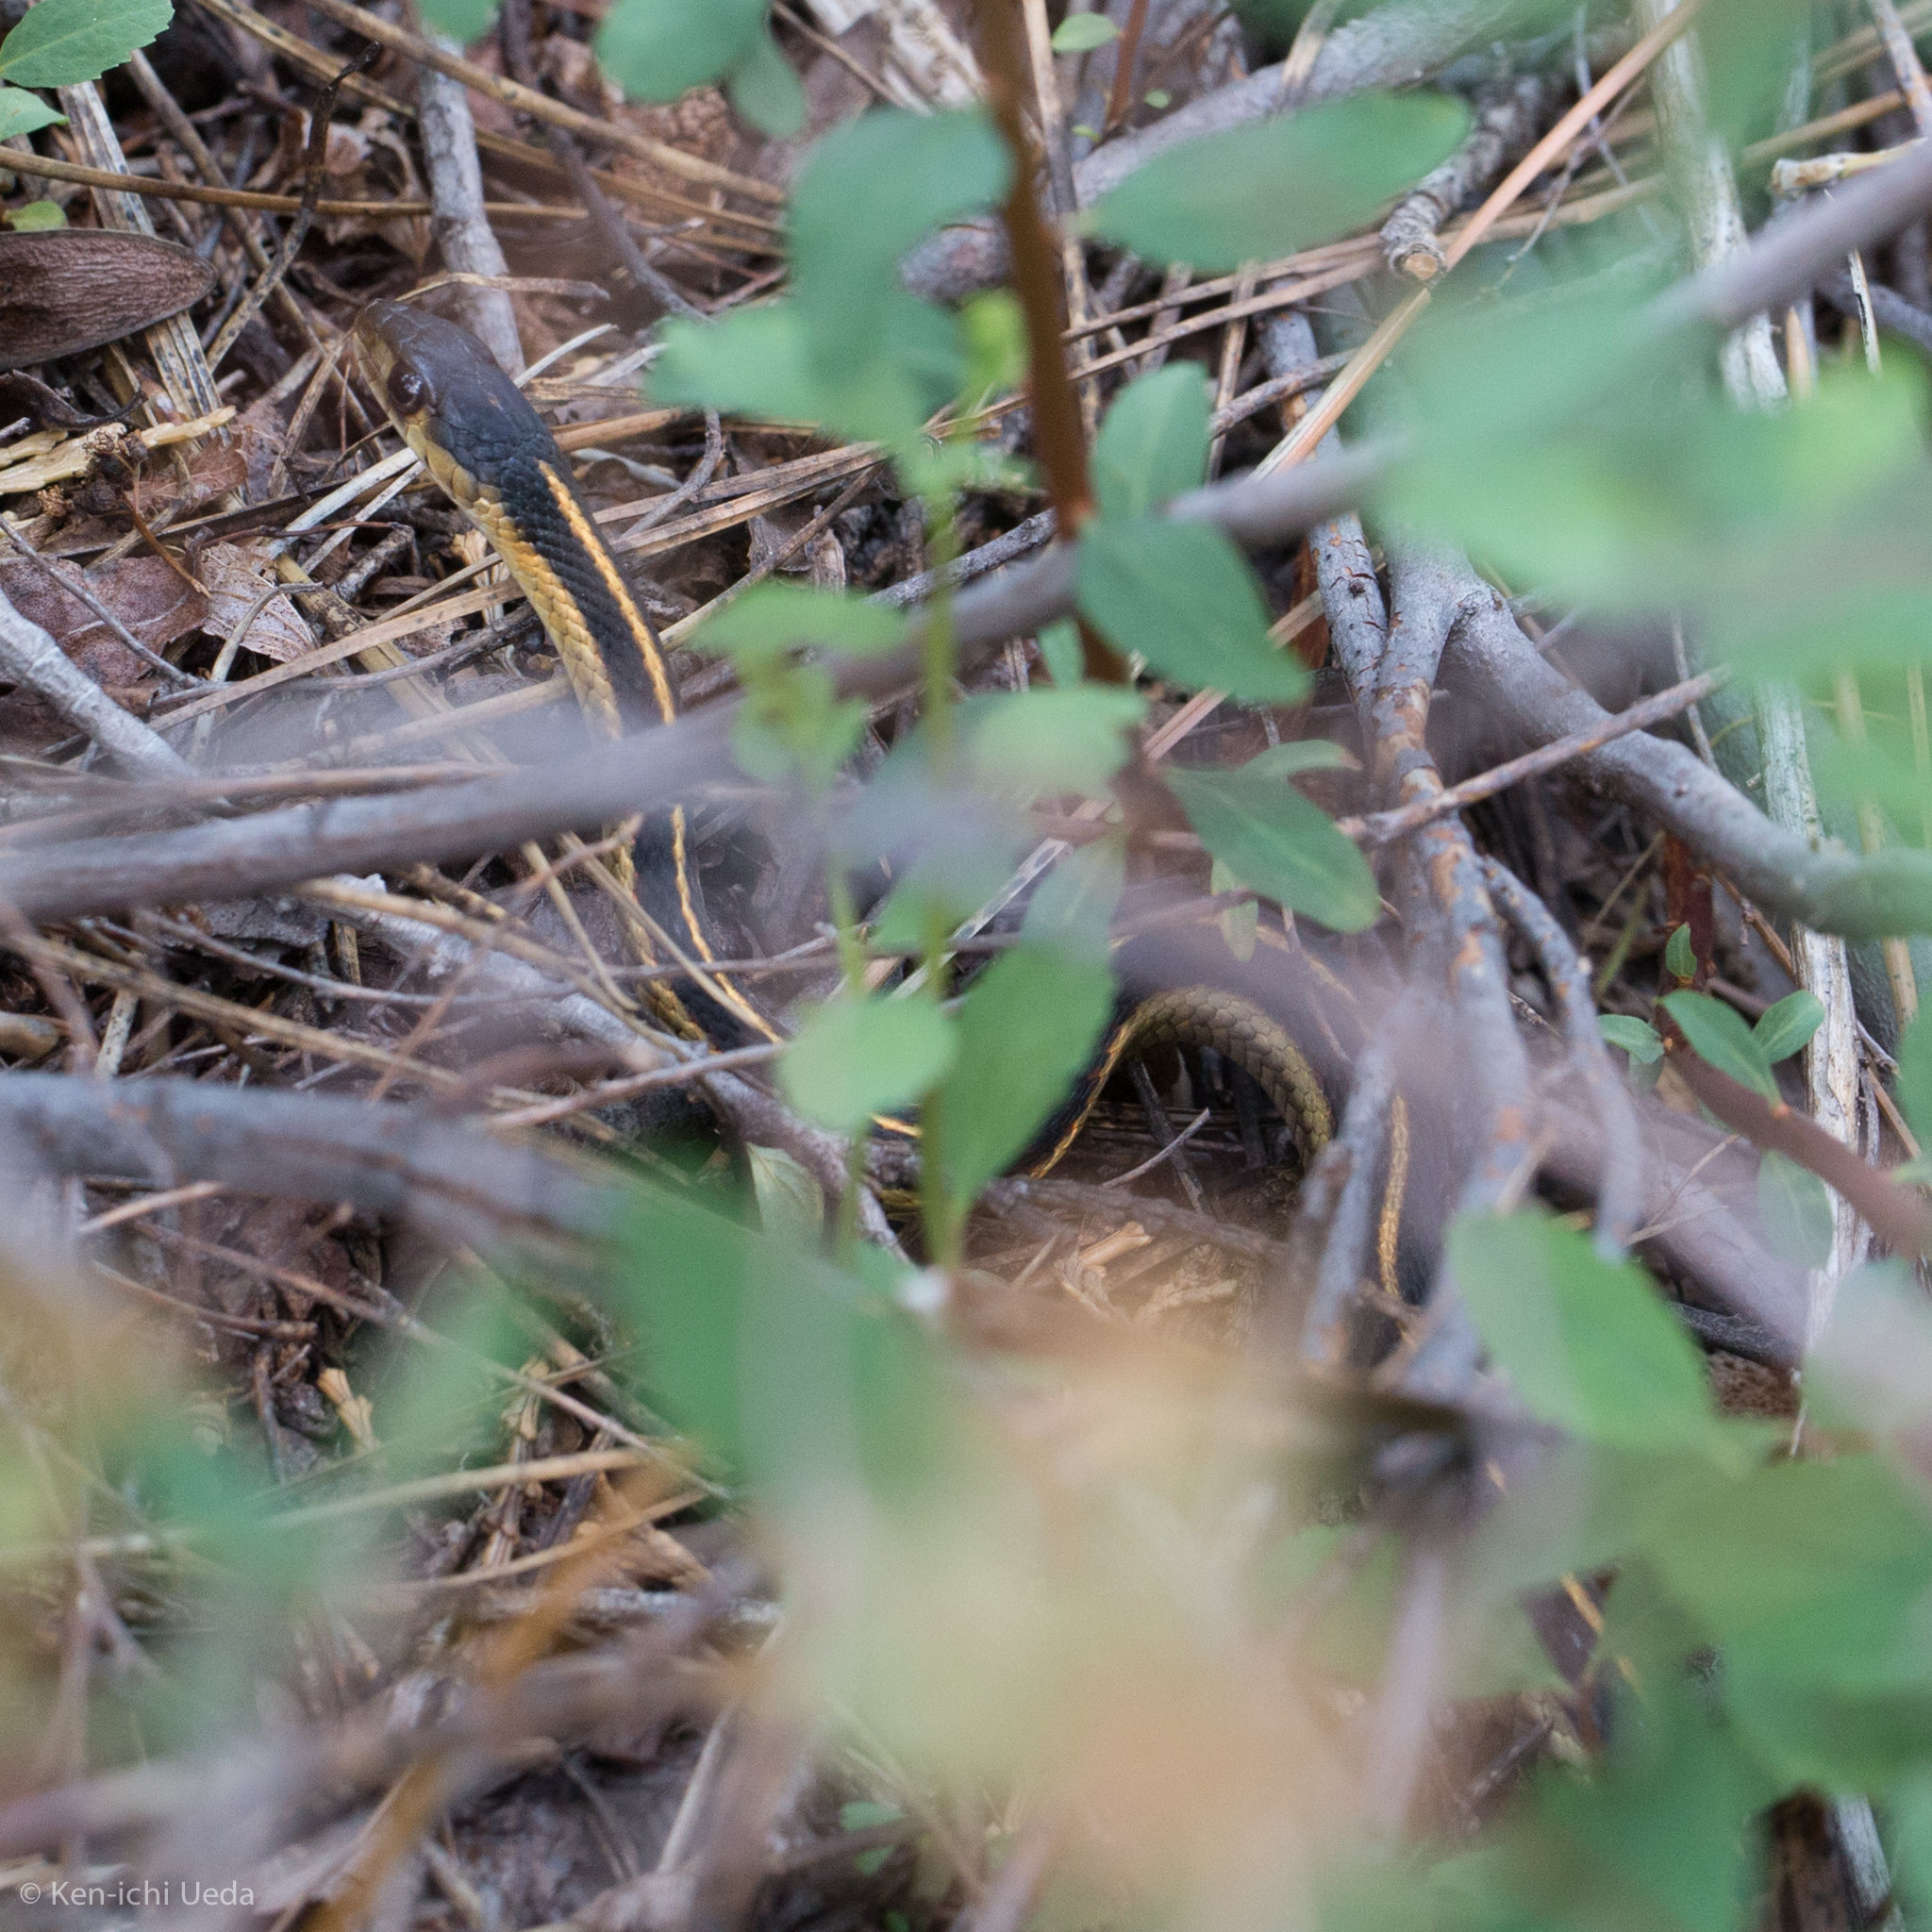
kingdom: Animalia
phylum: Chordata
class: Squamata
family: Colubridae
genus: Thamnophis
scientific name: Thamnophis sirtalis
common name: Common garter snake
